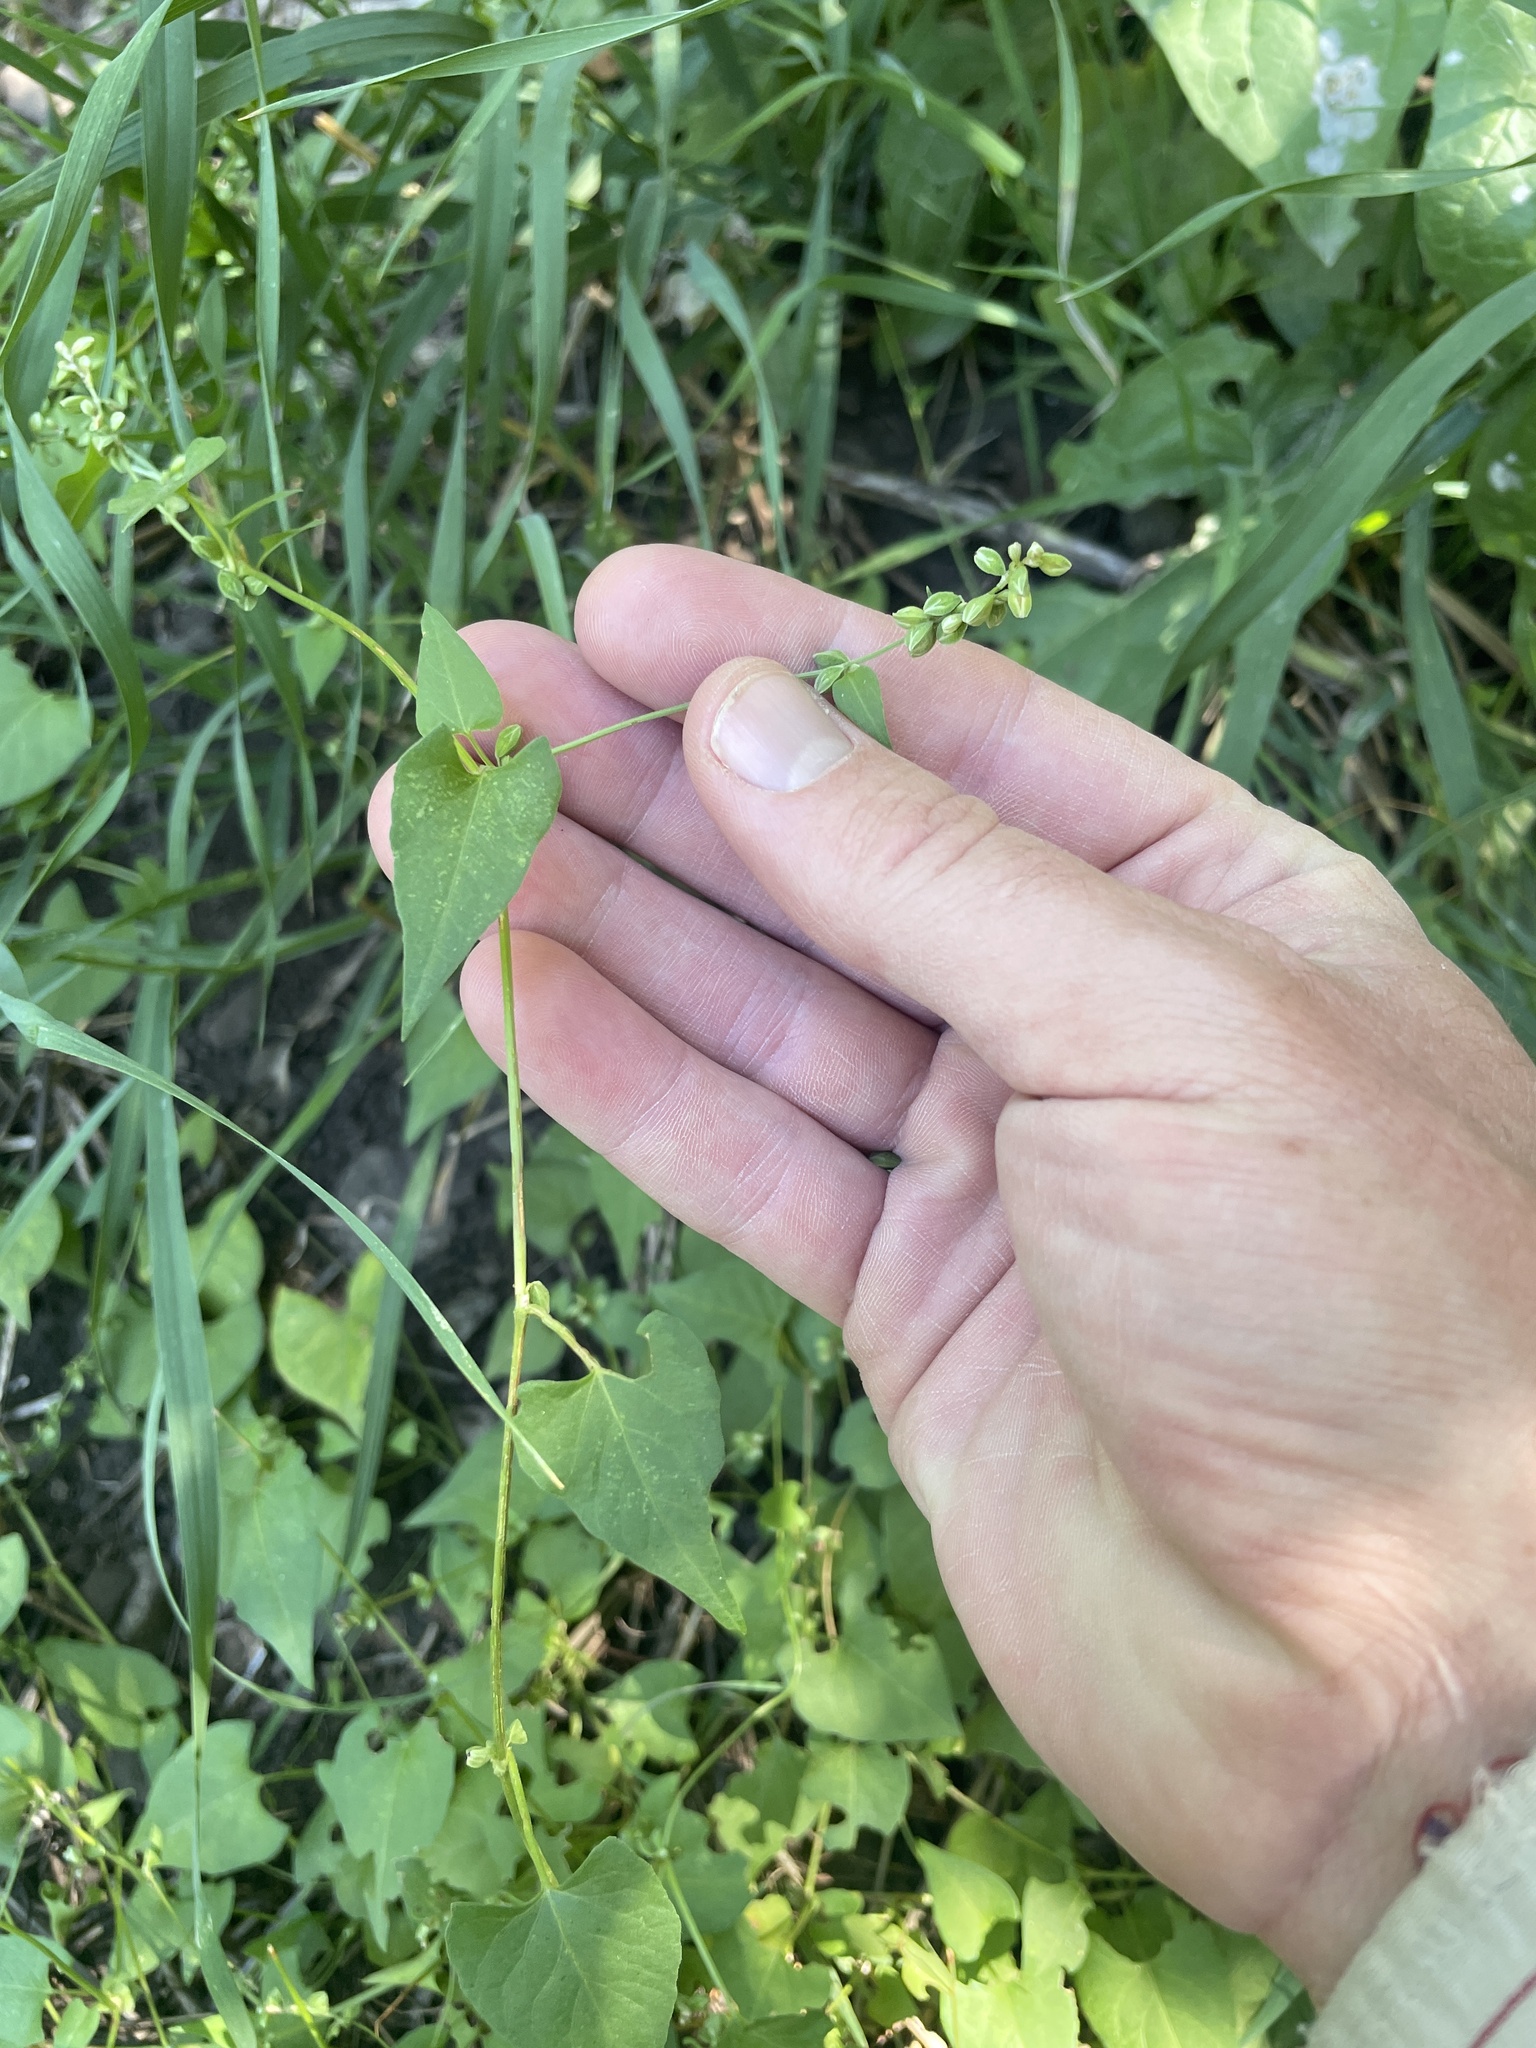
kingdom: Plantae
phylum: Tracheophyta
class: Magnoliopsida
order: Caryophyllales
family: Polygonaceae
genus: Fallopia
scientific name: Fallopia convolvulus
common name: Black bindweed
